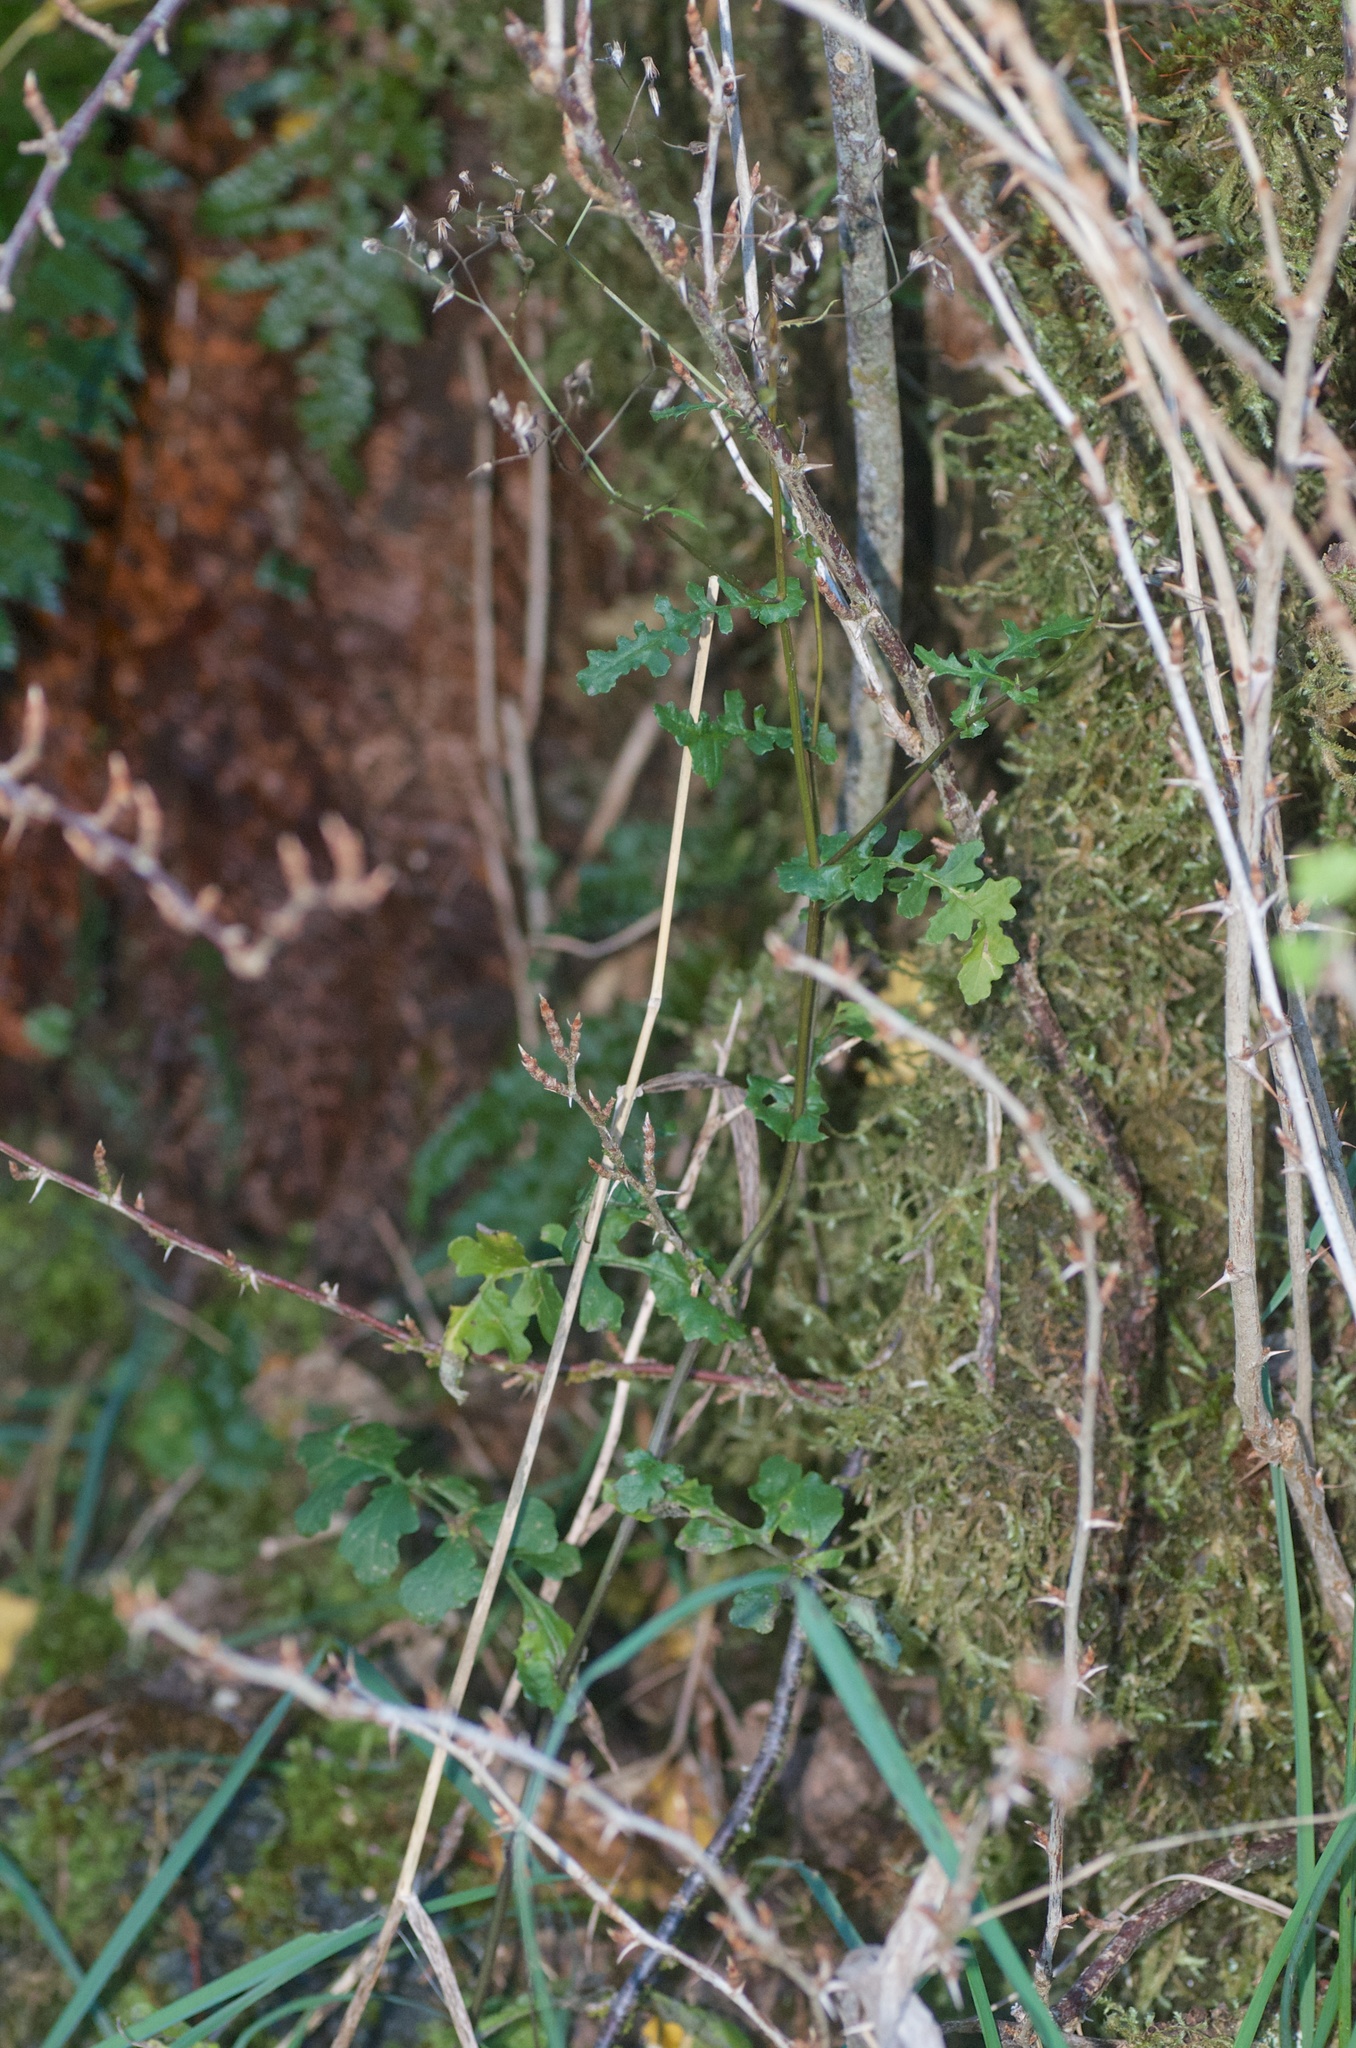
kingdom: Plantae
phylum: Tracheophyta
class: Magnoliopsida
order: Asterales
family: Asteraceae
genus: Senecio
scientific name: Senecio wairauensis
